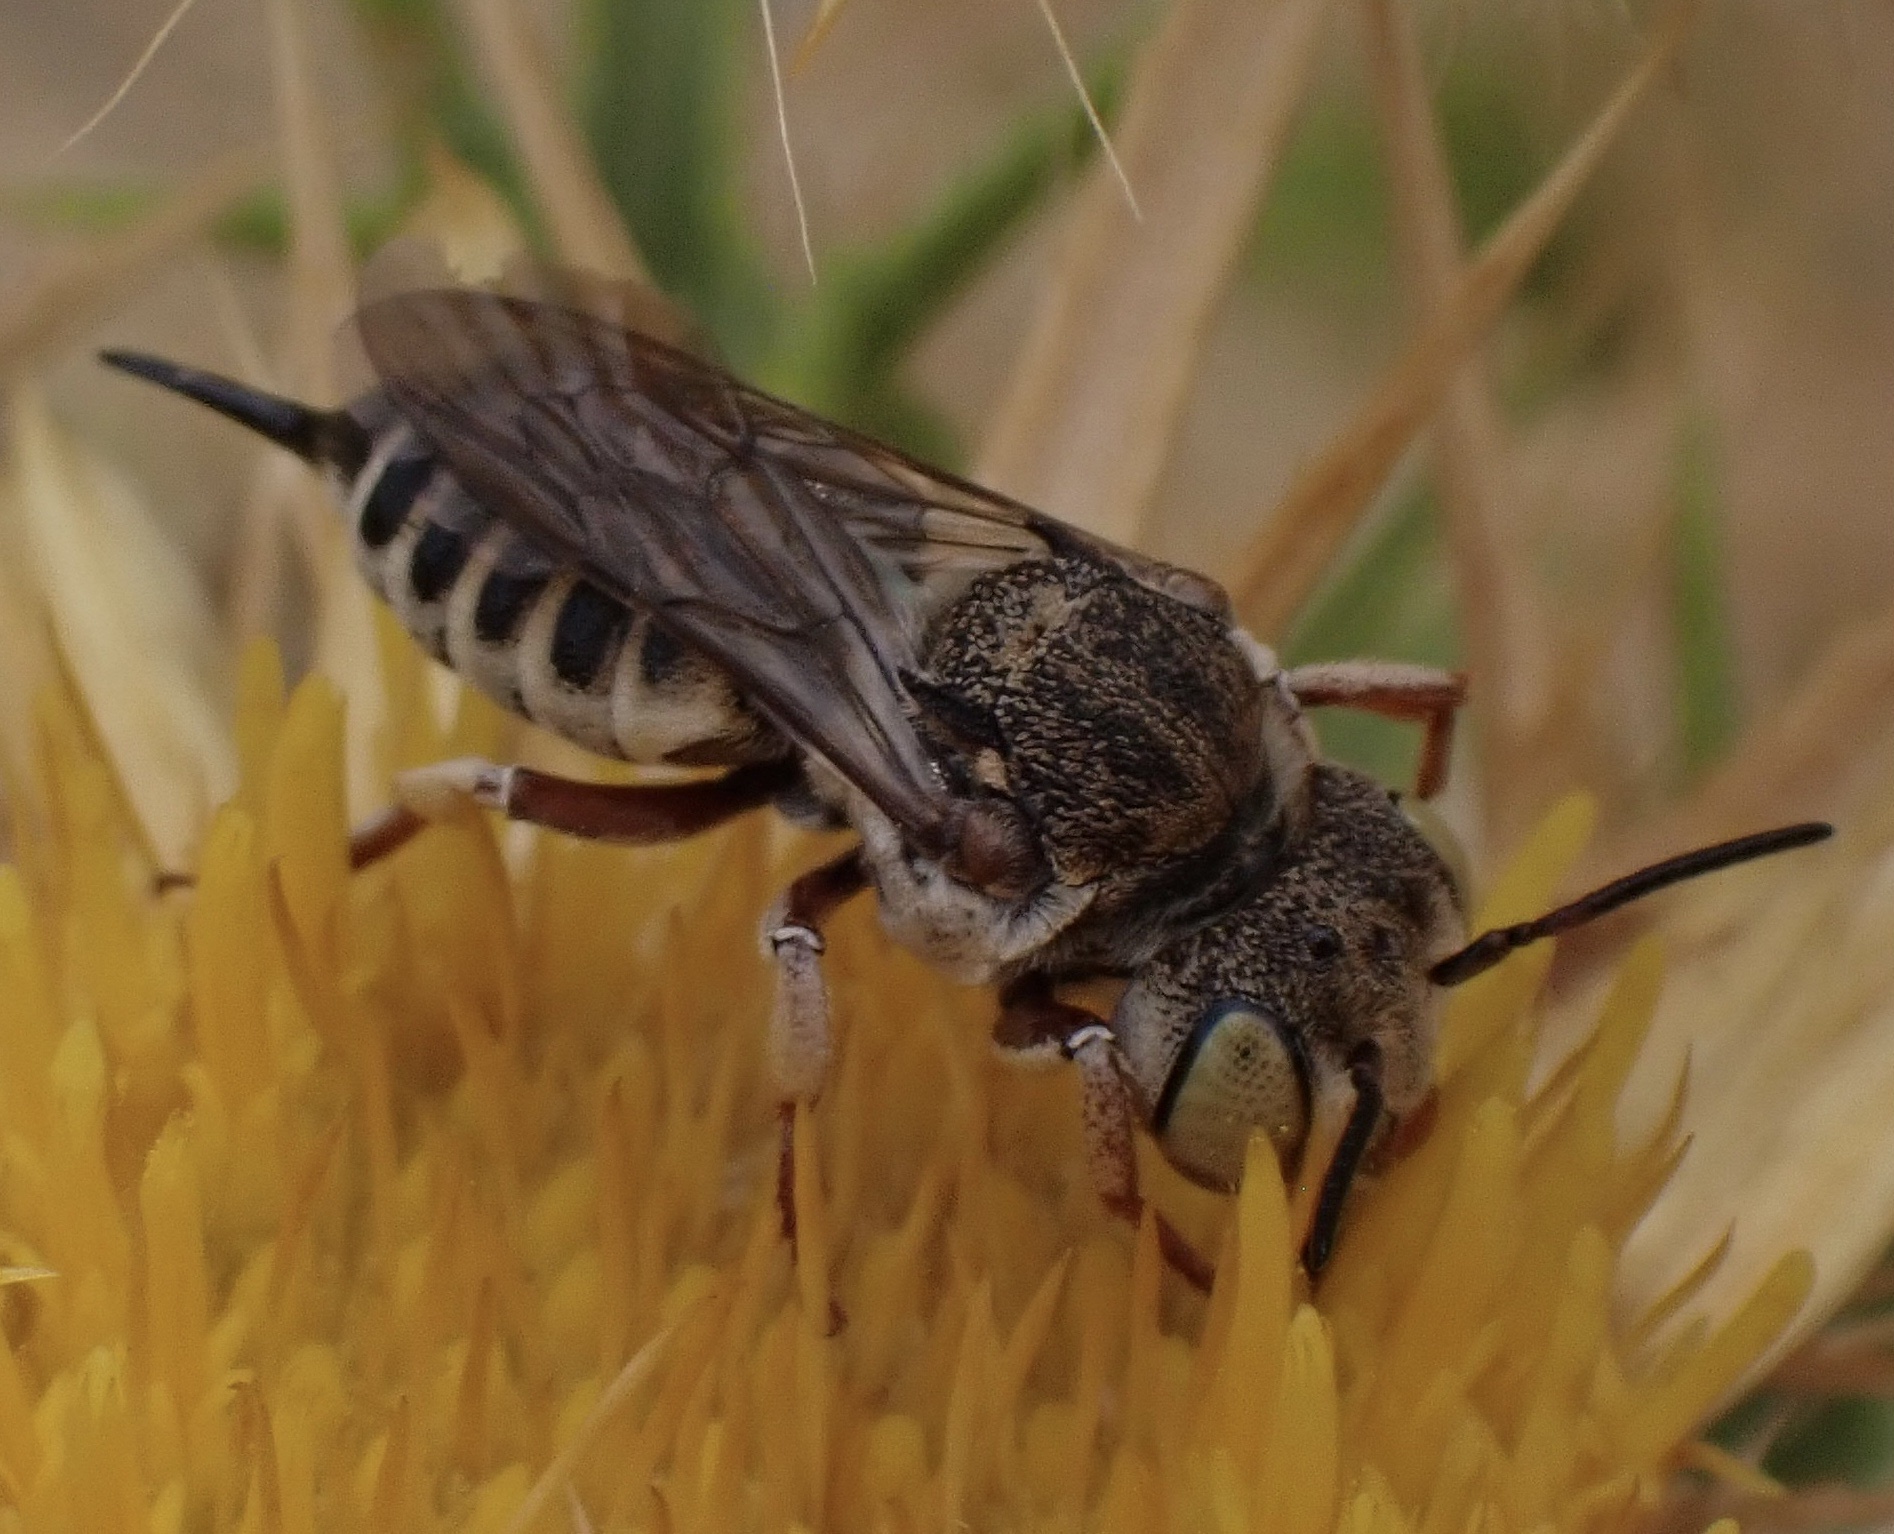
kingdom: Animalia
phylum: Arthropoda
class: Insecta
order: Hymenoptera
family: Megachilidae
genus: Coelioxys
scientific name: Coelioxys acanthura
